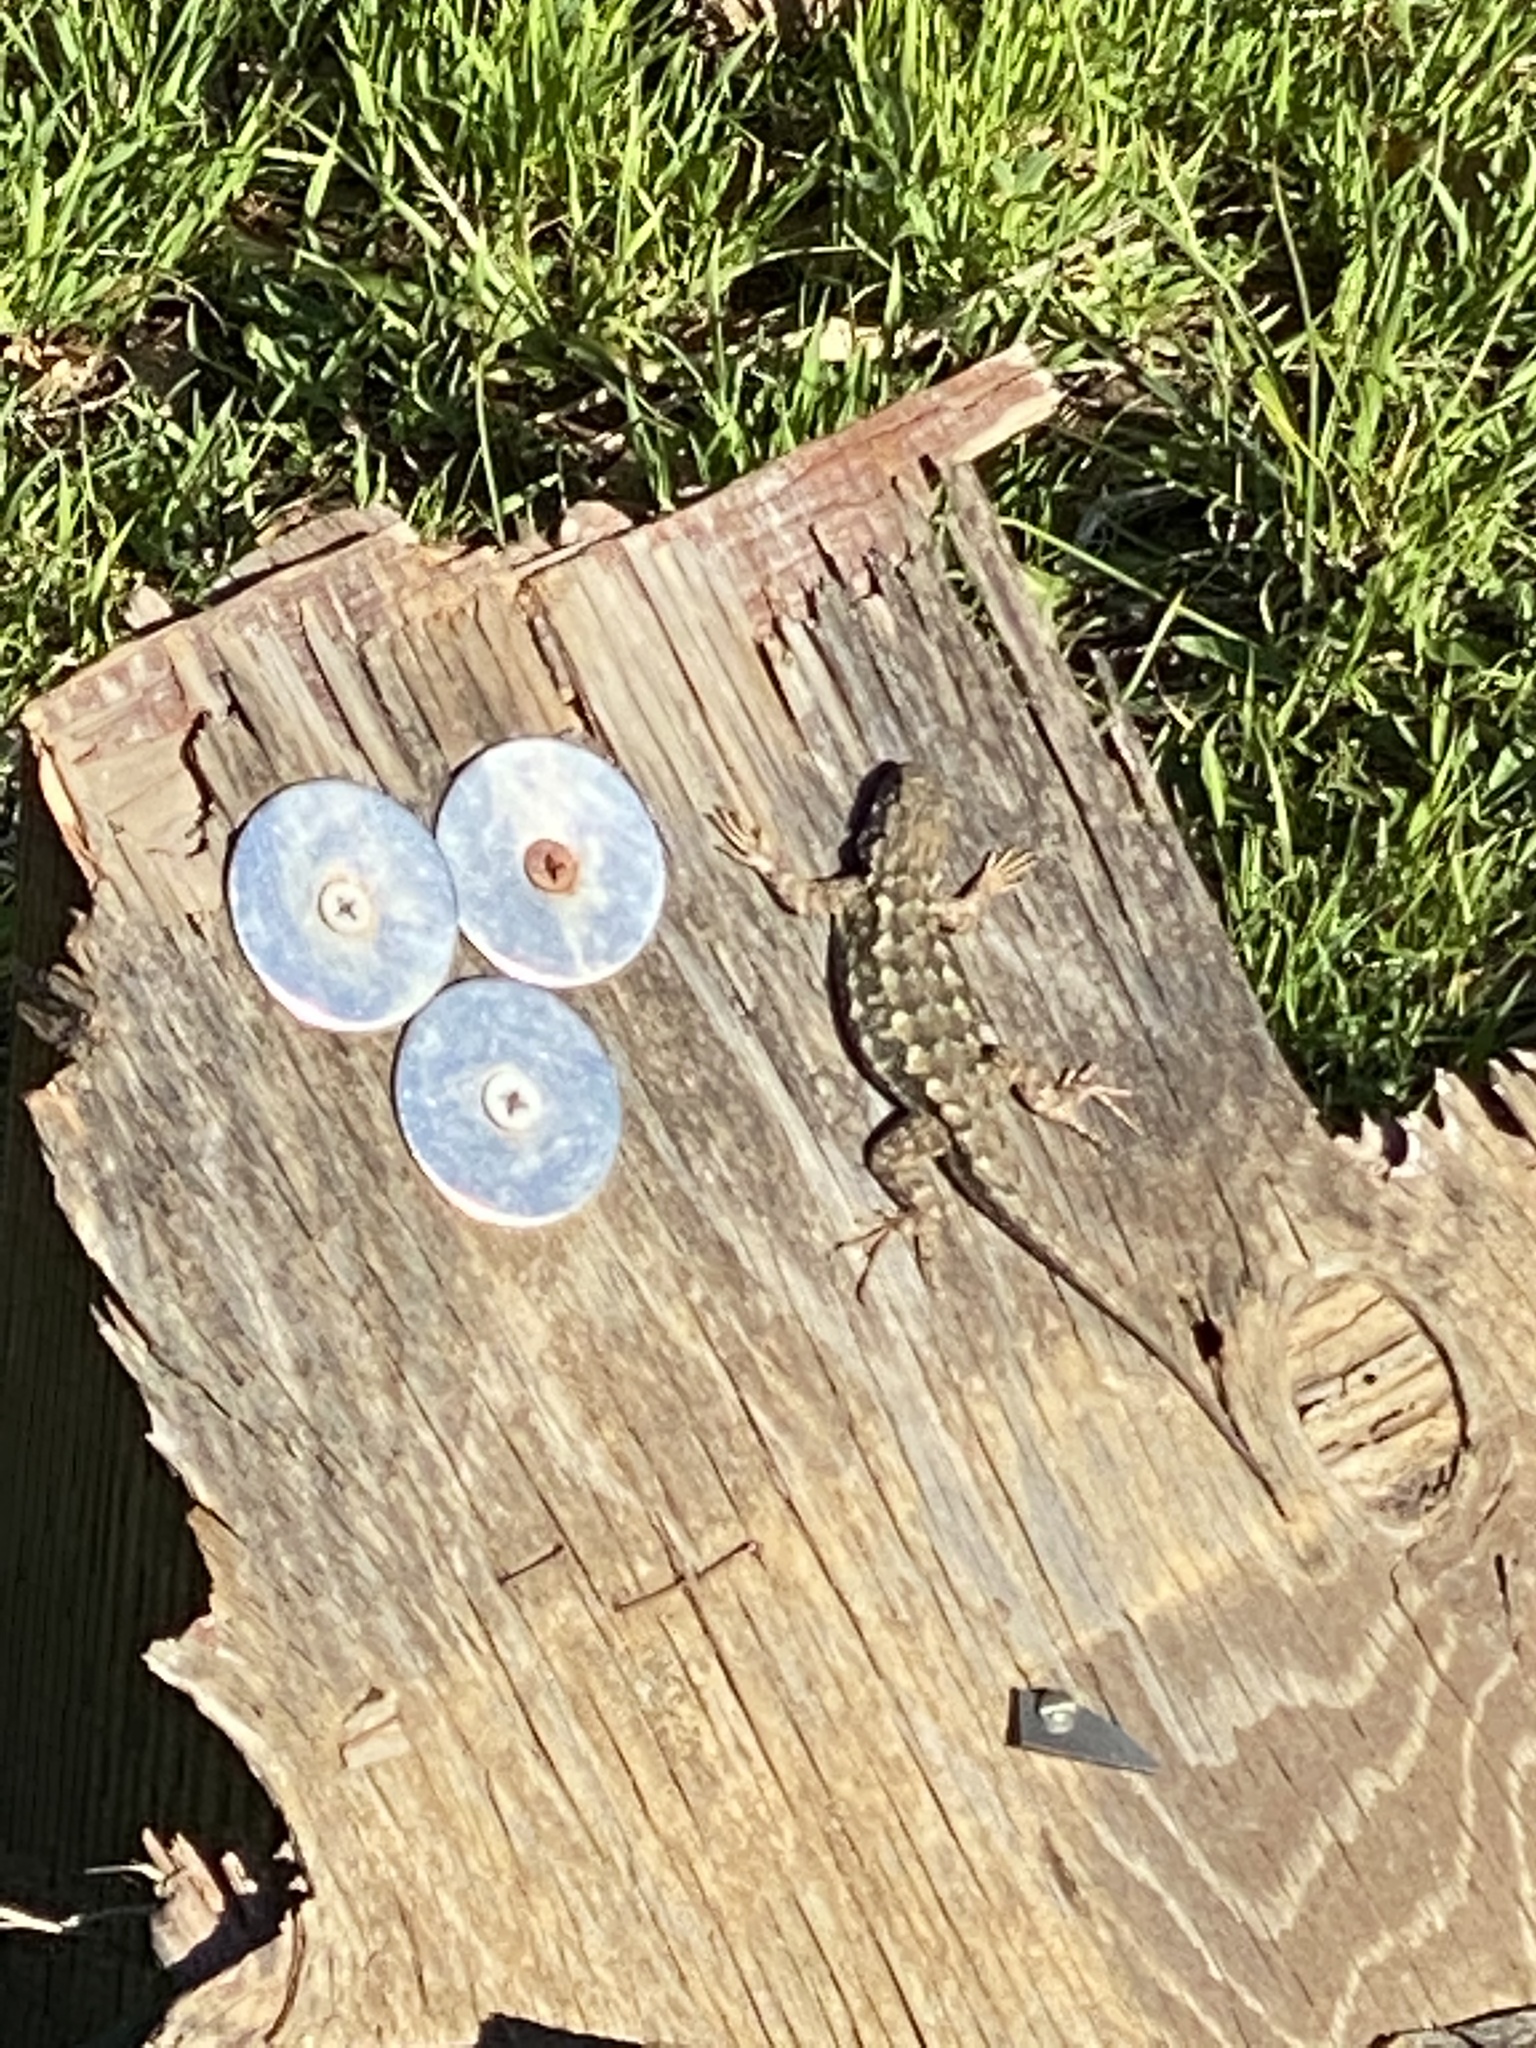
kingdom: Animalia
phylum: Chordata
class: Squamata
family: Phrynosomatidae
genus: Sceloporus
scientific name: Sceloporus occidentalis
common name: Western fence lizard
